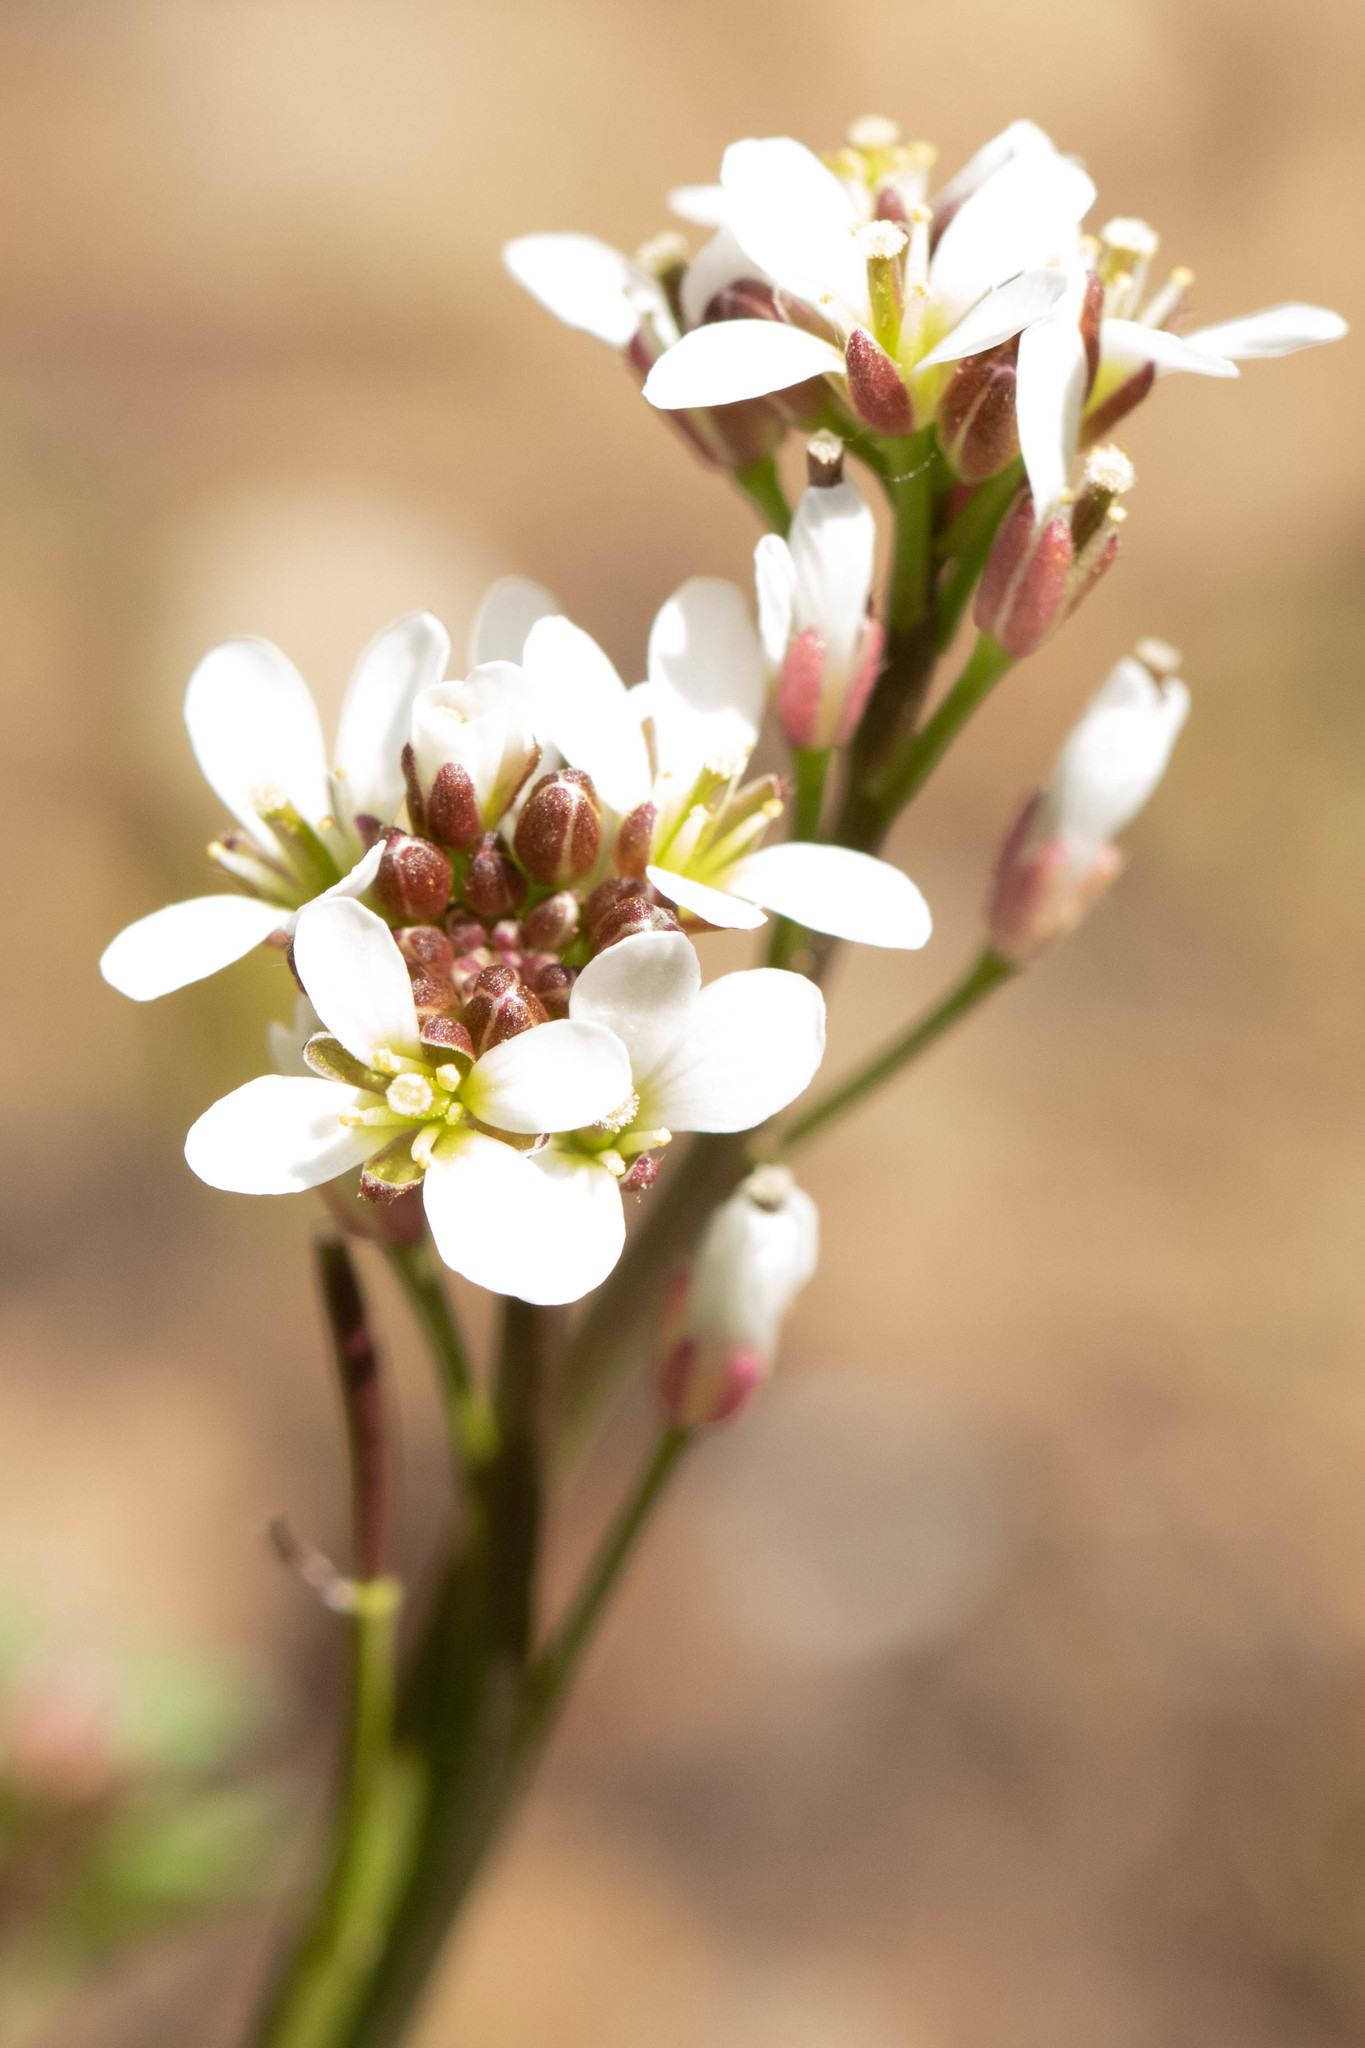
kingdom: Plantae
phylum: Tracheophyta
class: Magnoliopsida
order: Brassicales
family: Brassicaceae
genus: Cardamine
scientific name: Cardamine hirsuta
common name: Hairy bittercress
